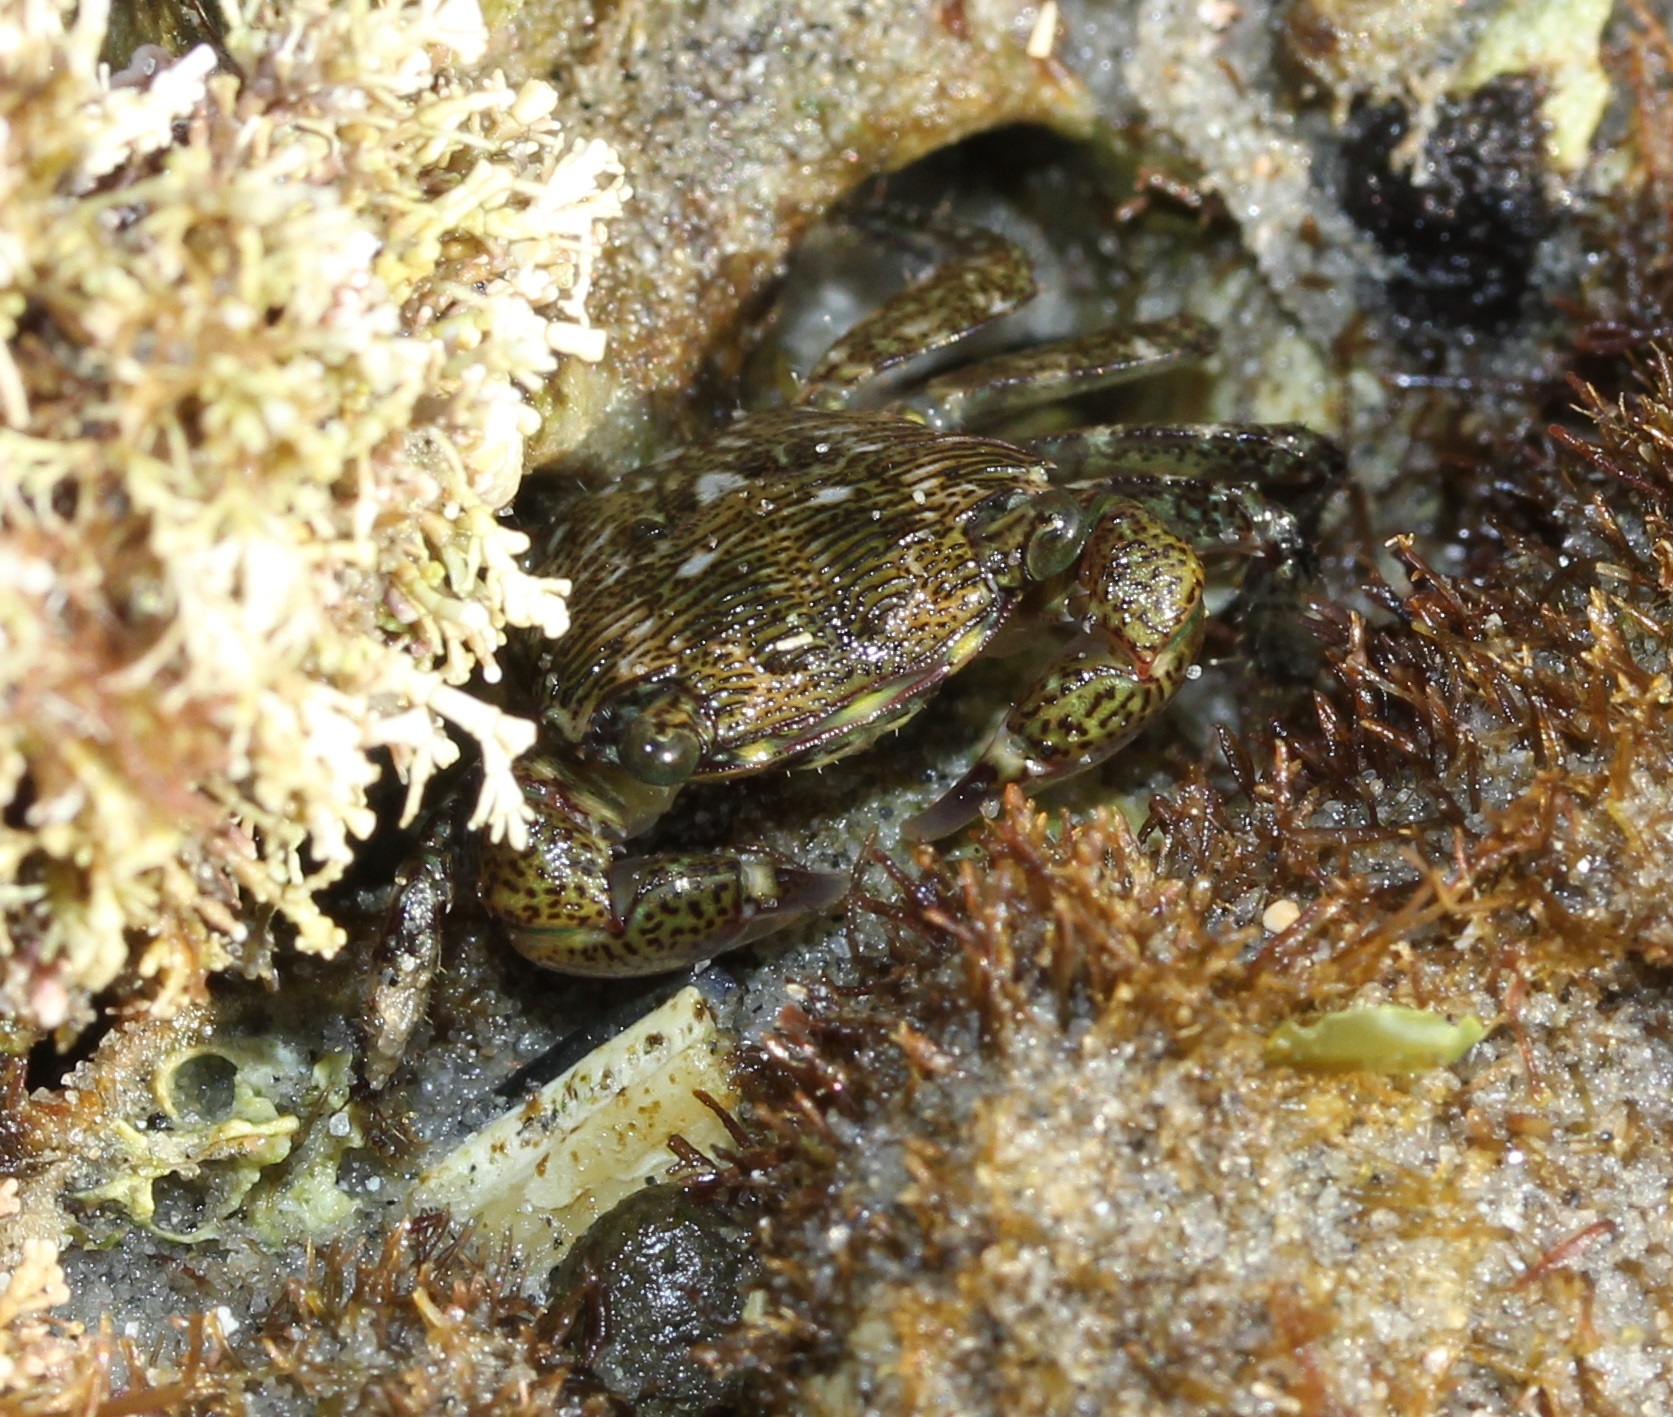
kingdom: Animalia
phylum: Arthropoda
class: Malacostraca
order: Decapoda
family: Grapsidae
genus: Pachygrapsus
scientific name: Pachygrapsus crassipes
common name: Striped shore crab
